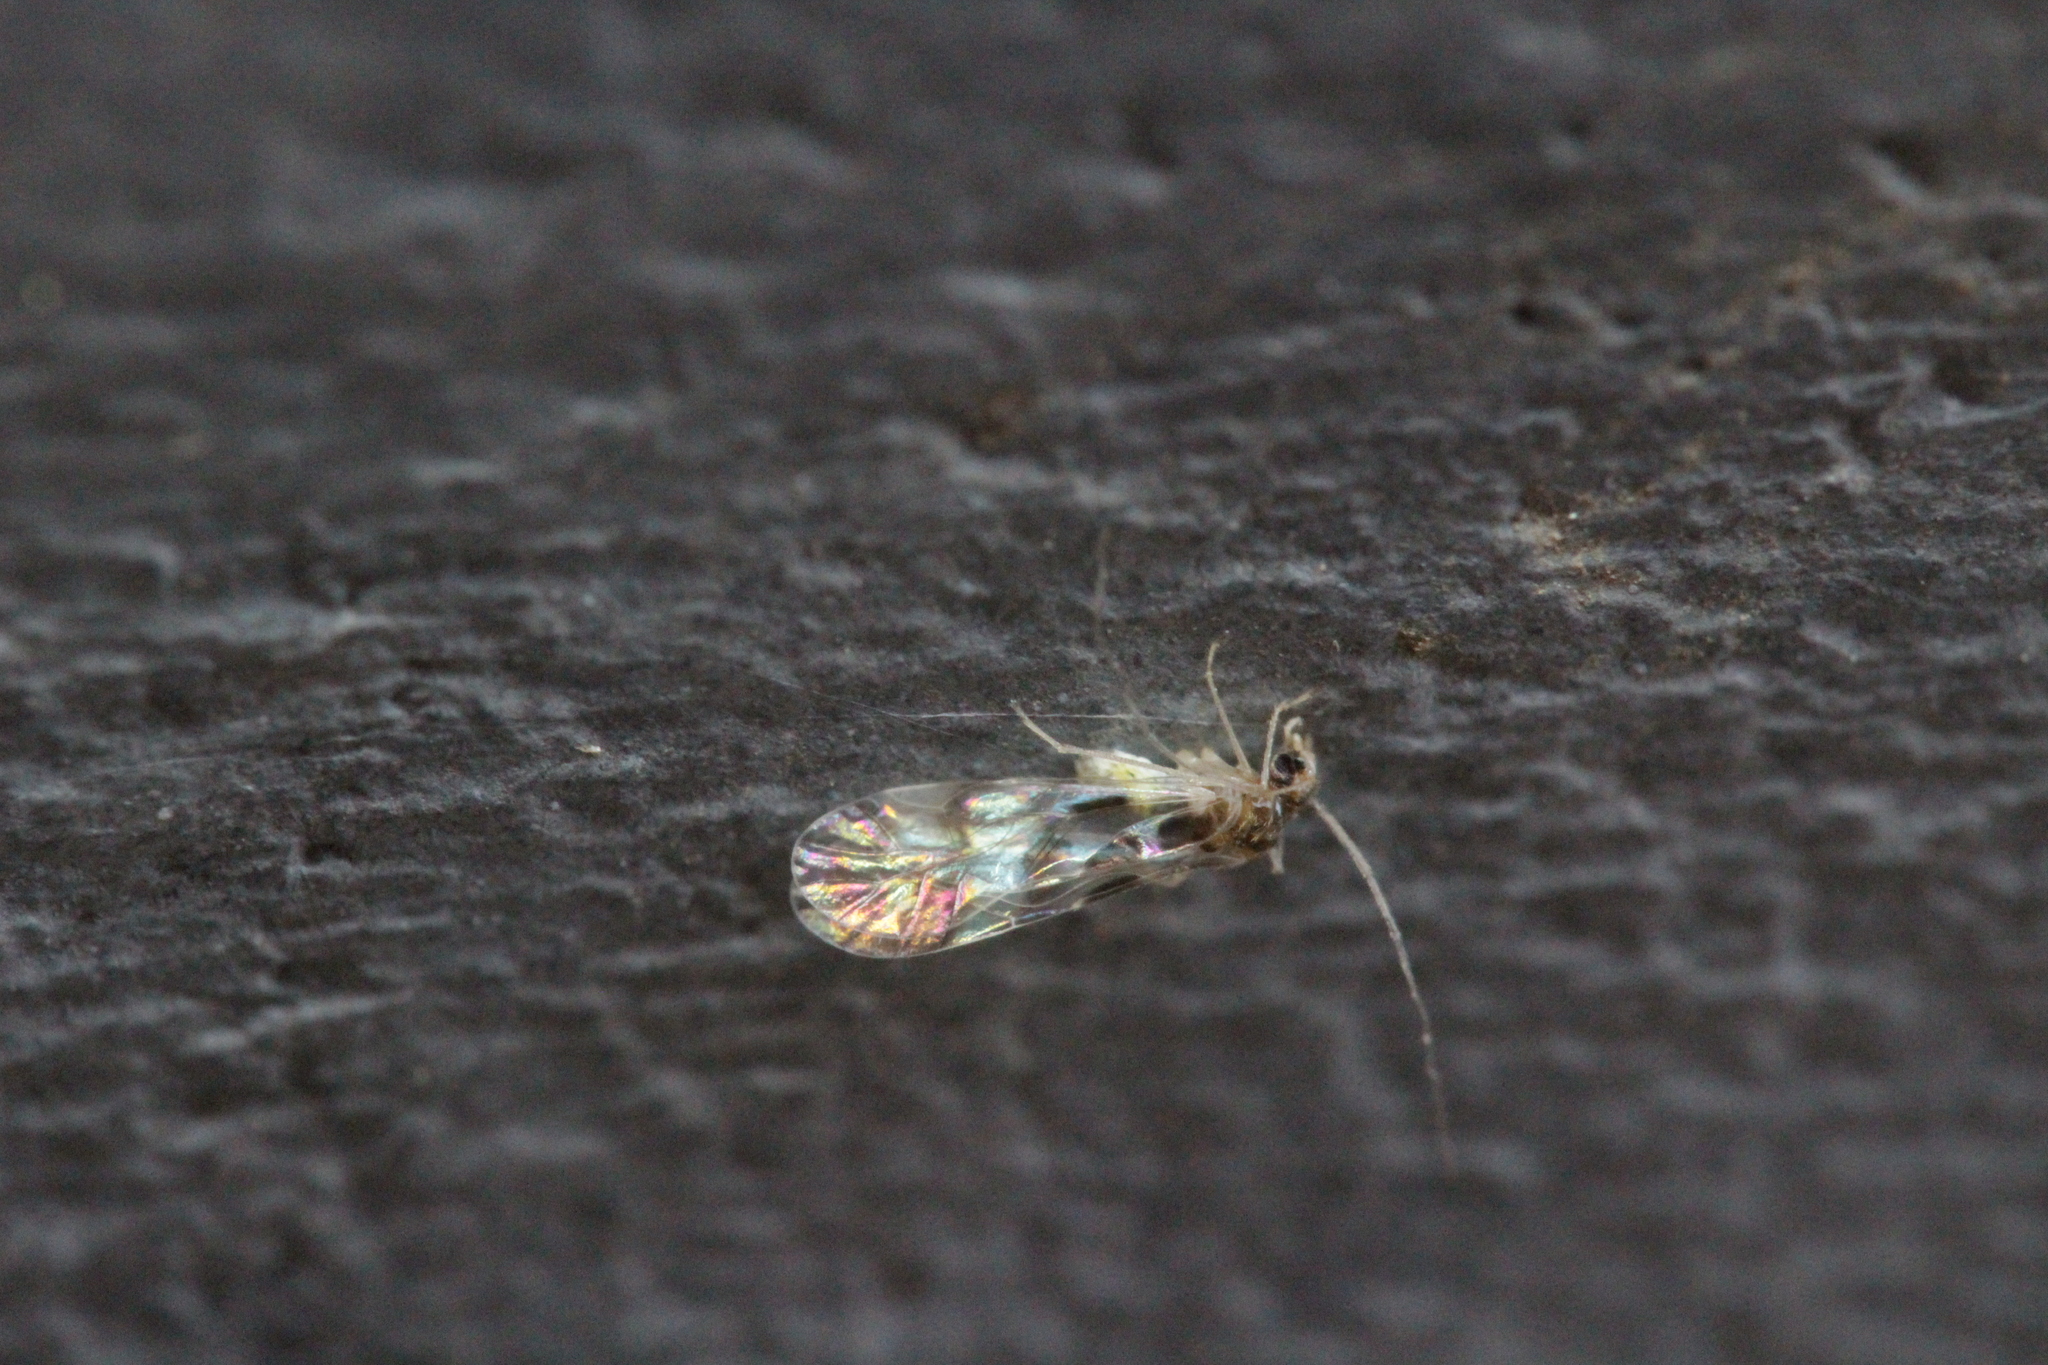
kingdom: Animalia
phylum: Arthropoda
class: Insecta
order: Psocodea
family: Stenopsocidae
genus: Graphopsocus
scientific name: Graphopsocus cruciatus
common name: Lizard bark louse
